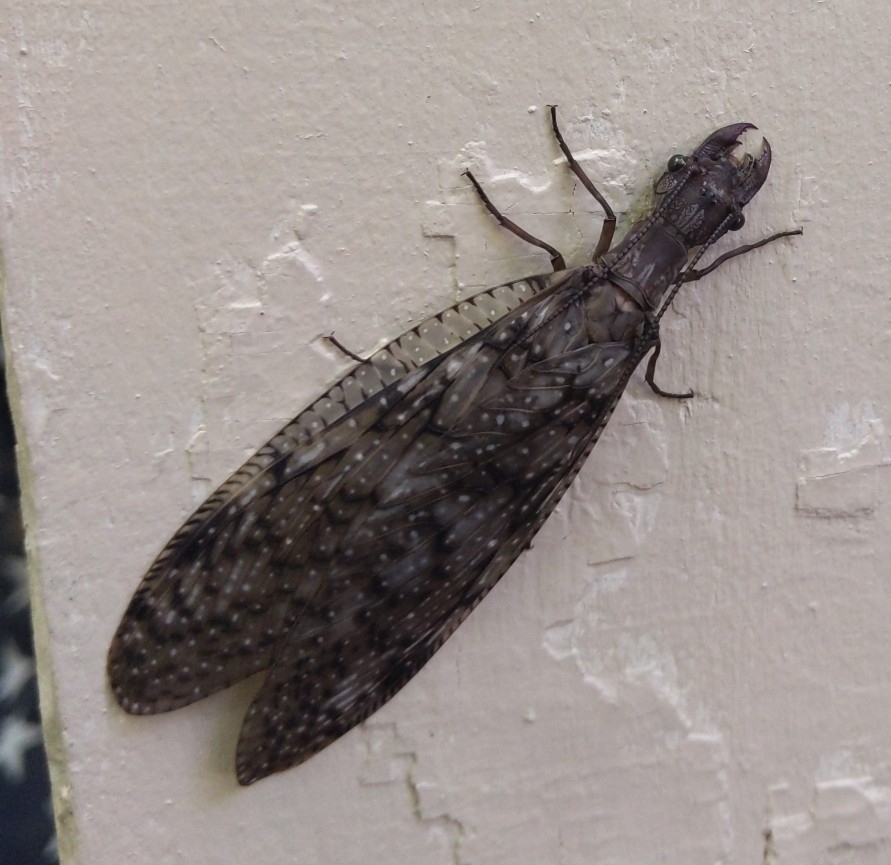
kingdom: Animalia
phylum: Arthropoda
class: Insecta
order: Megaloptera
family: Corydalidae
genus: Corydalus
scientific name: Corydalus cornutus
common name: Dobsonfly
